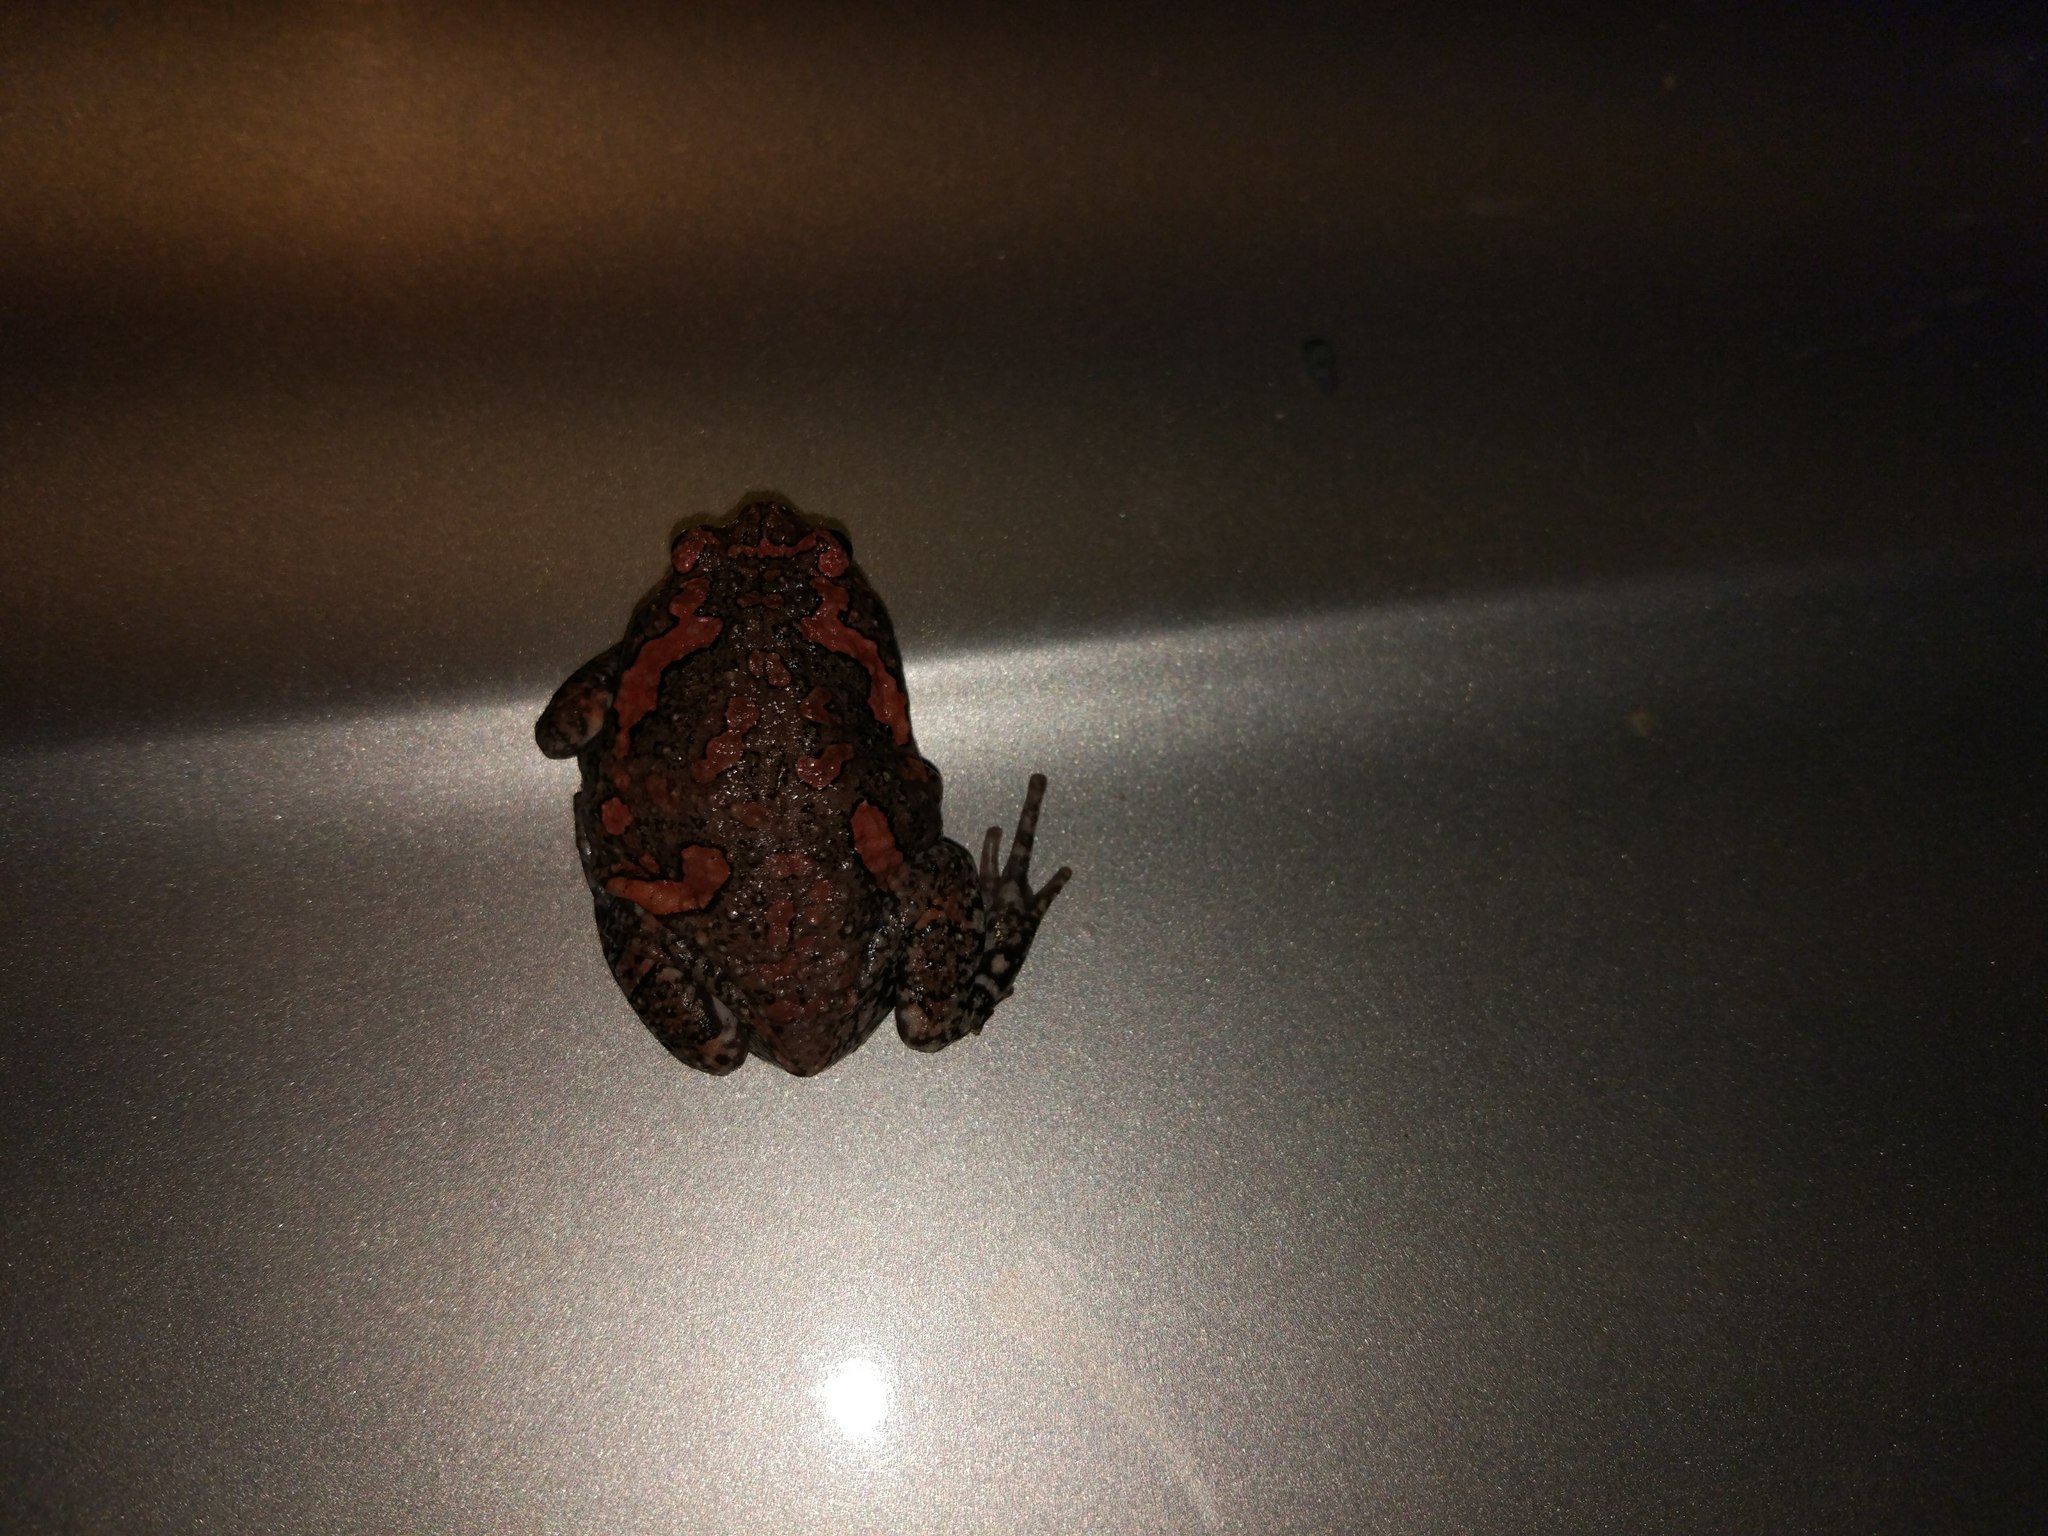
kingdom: Animalia
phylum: Chordata
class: Amphibia
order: Anura
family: Microhylidae
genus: Uperodon
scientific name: Uperodon taprobanicus
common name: Ceylon kaloula
